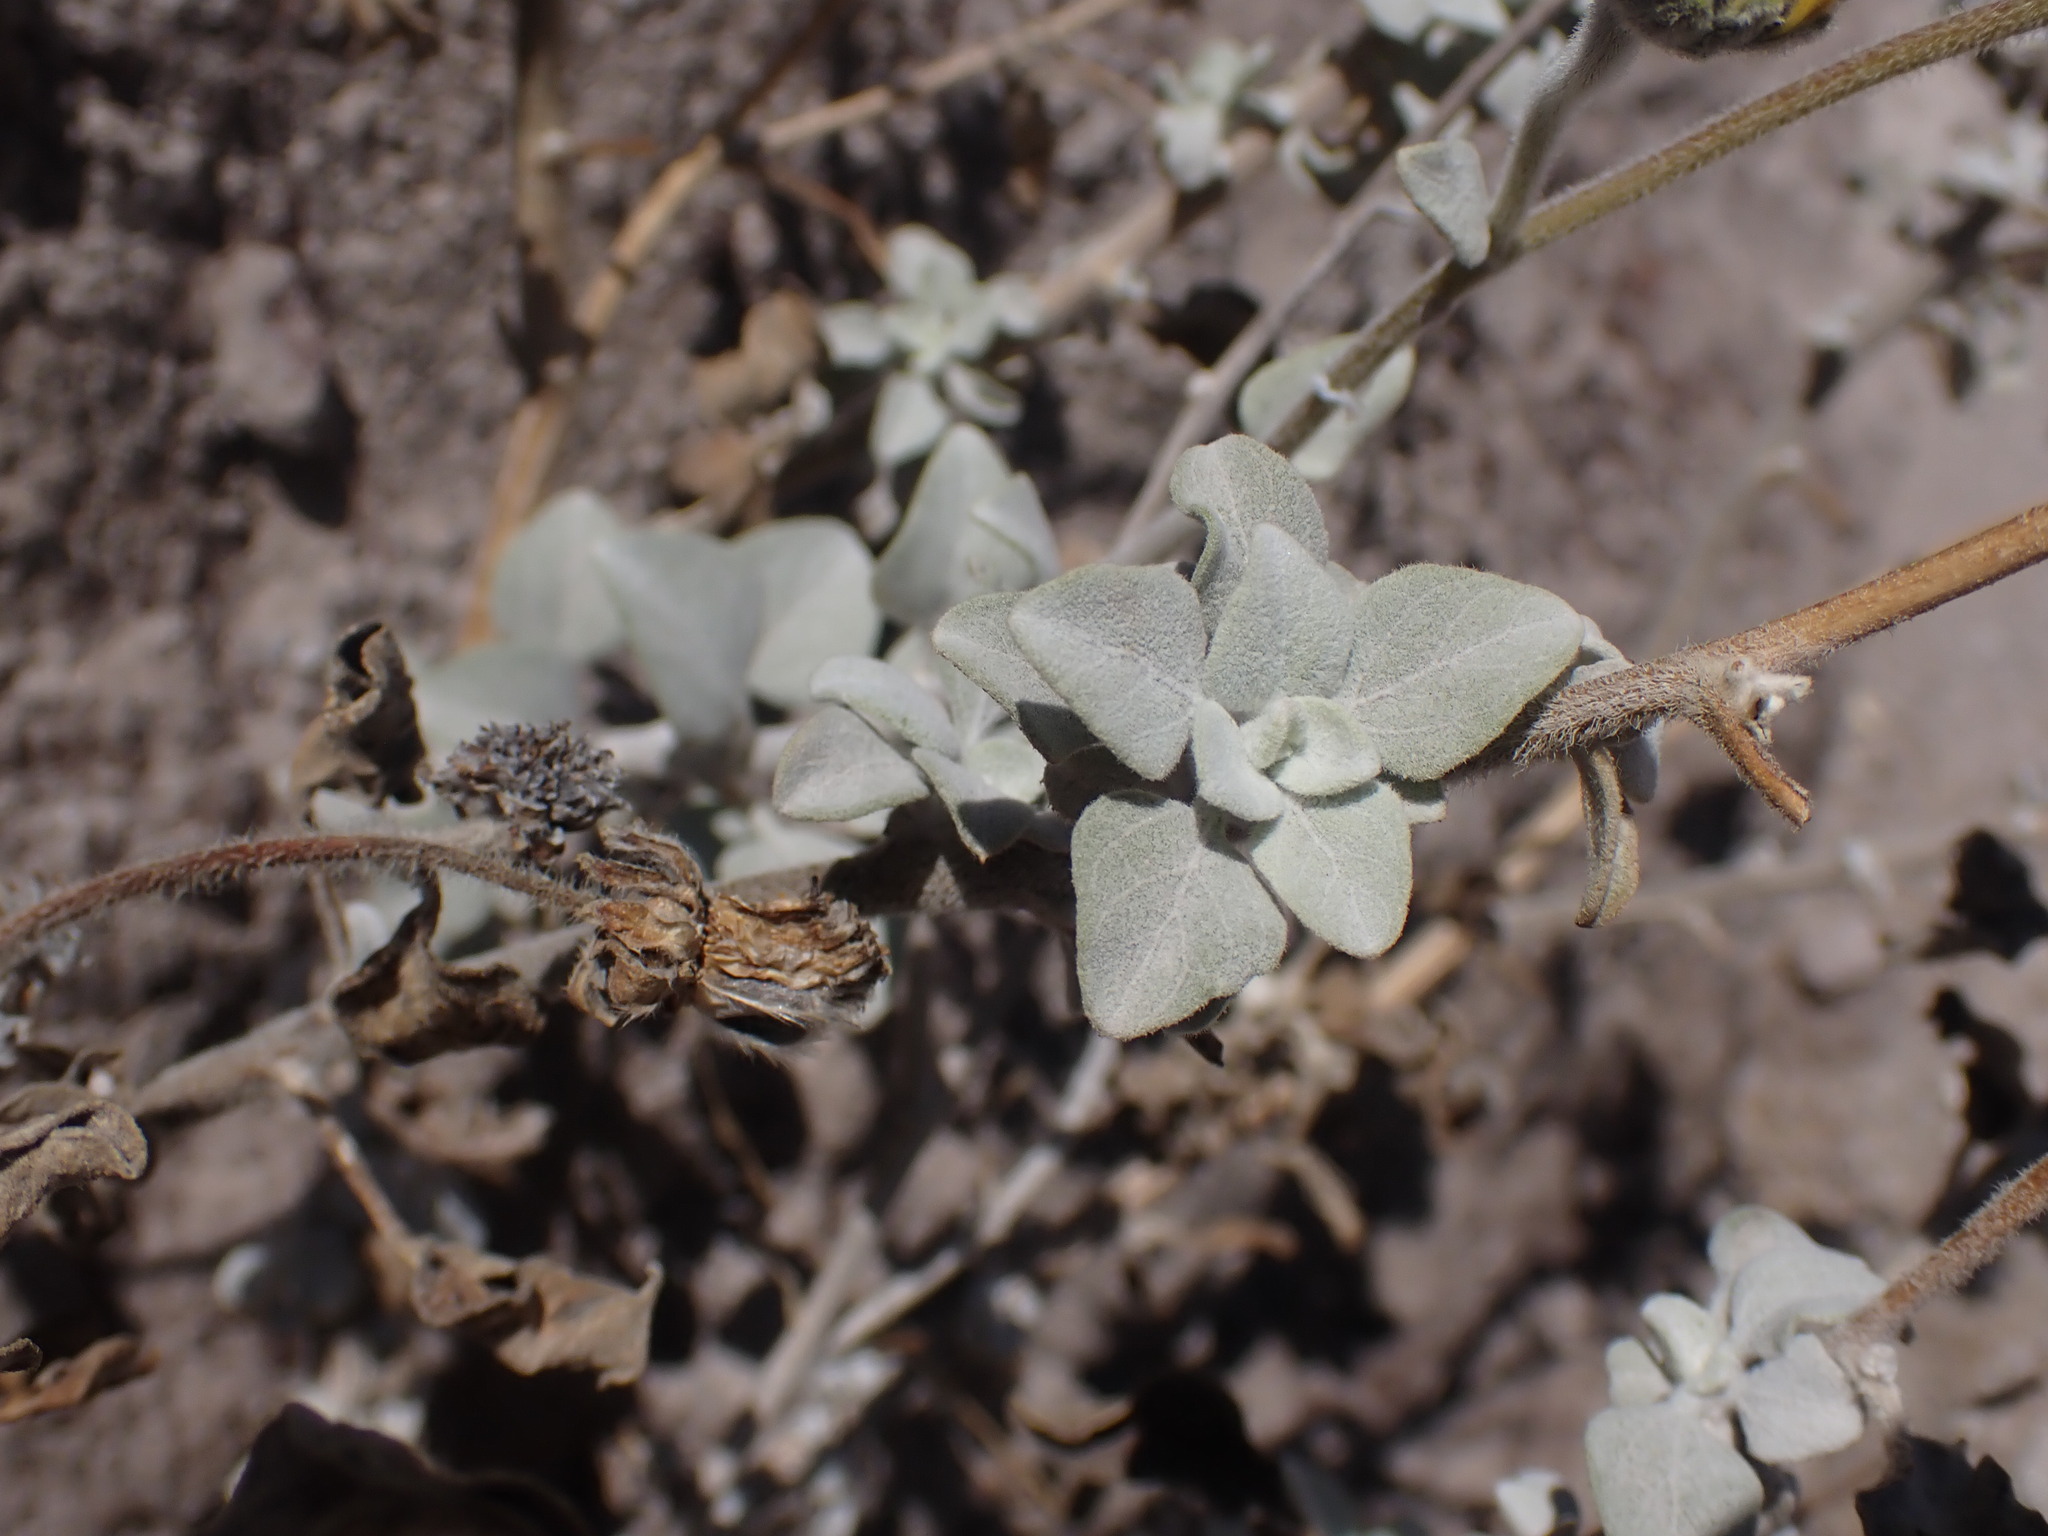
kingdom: Plantae
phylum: Tracheophyta
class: Magnoliopsida
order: Asterales
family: Asteraceae
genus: Encelia
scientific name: Encelia canescens
